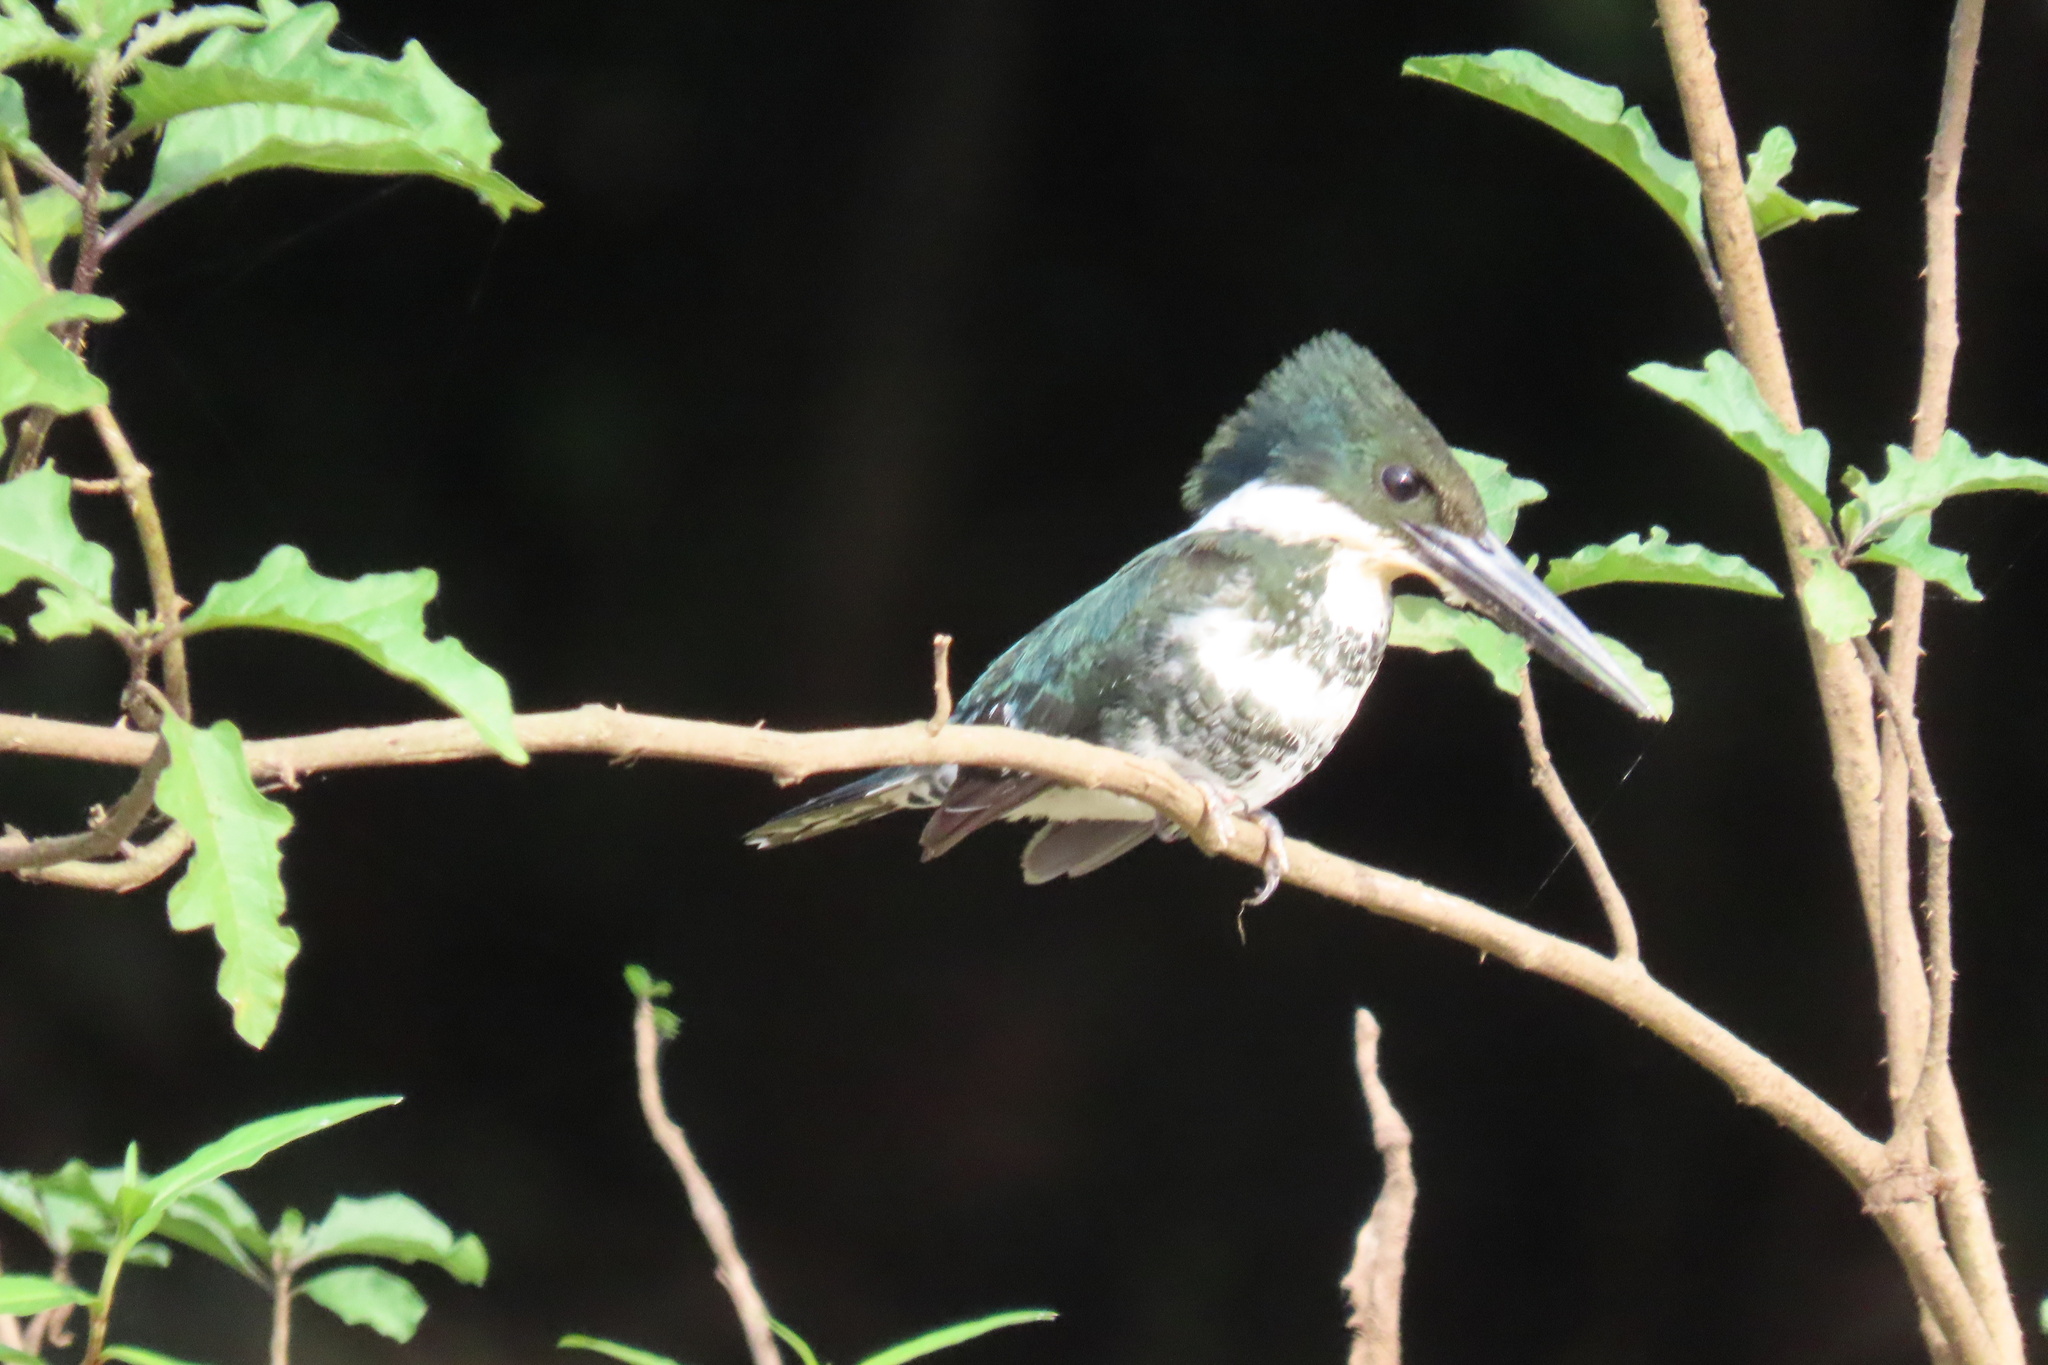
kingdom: Animalia
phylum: Chordata
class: Aves
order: Coraciiformes
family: Alcedinidae
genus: Chloroceryle
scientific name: Chloroceryle americana
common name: Green kingfisher
